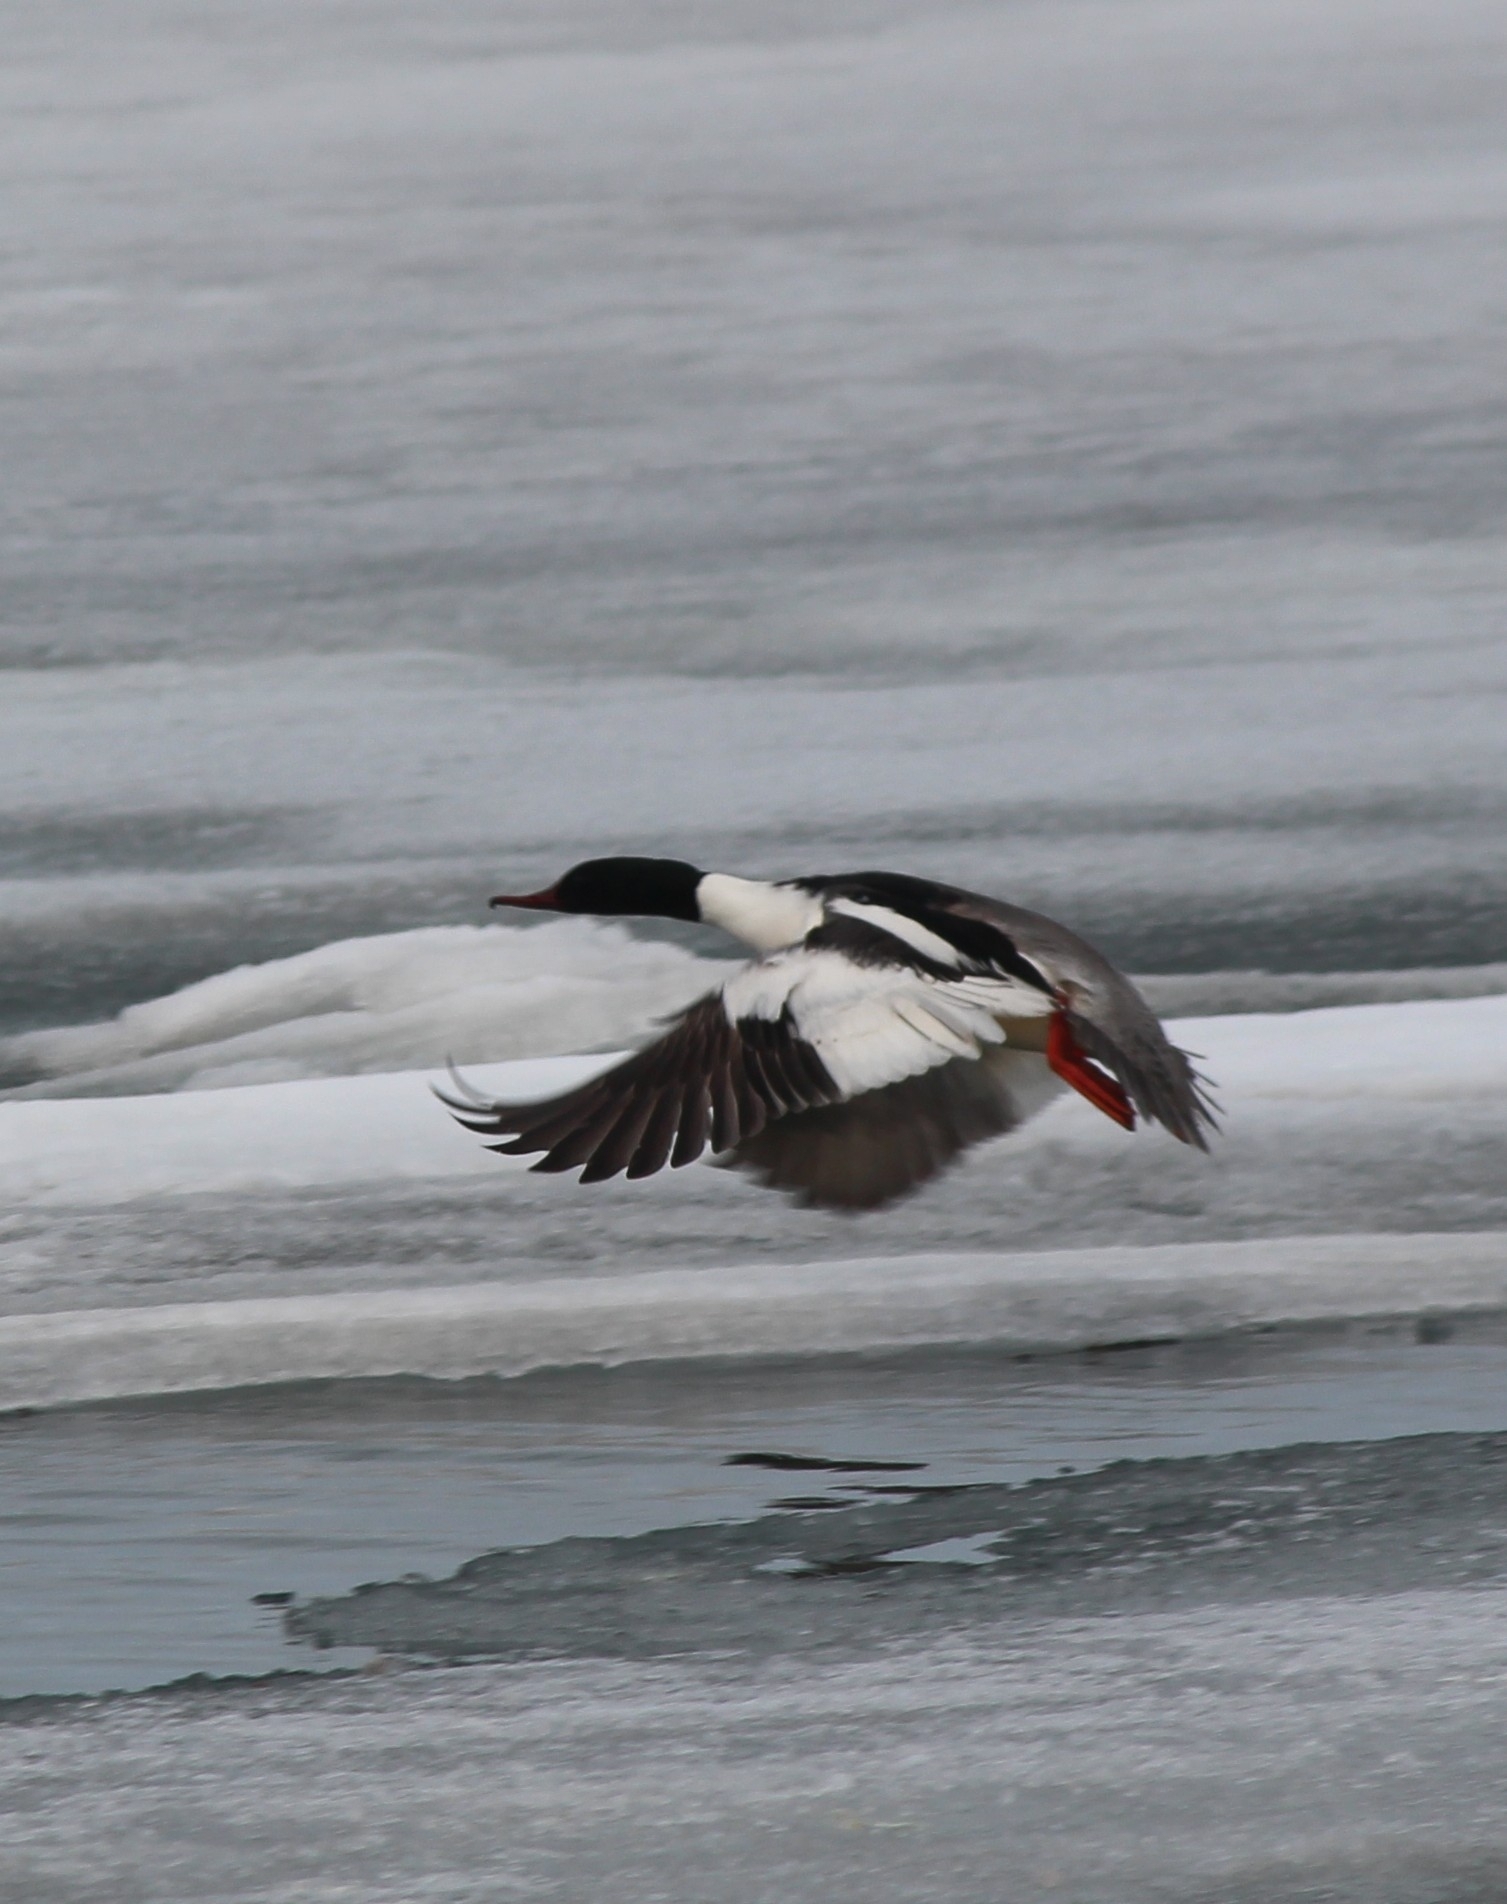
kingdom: Animalia
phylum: Chordata
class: Aves
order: Anseriformes
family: Anatidae
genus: Mergus
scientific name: Mergus merganser
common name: Common merganser
